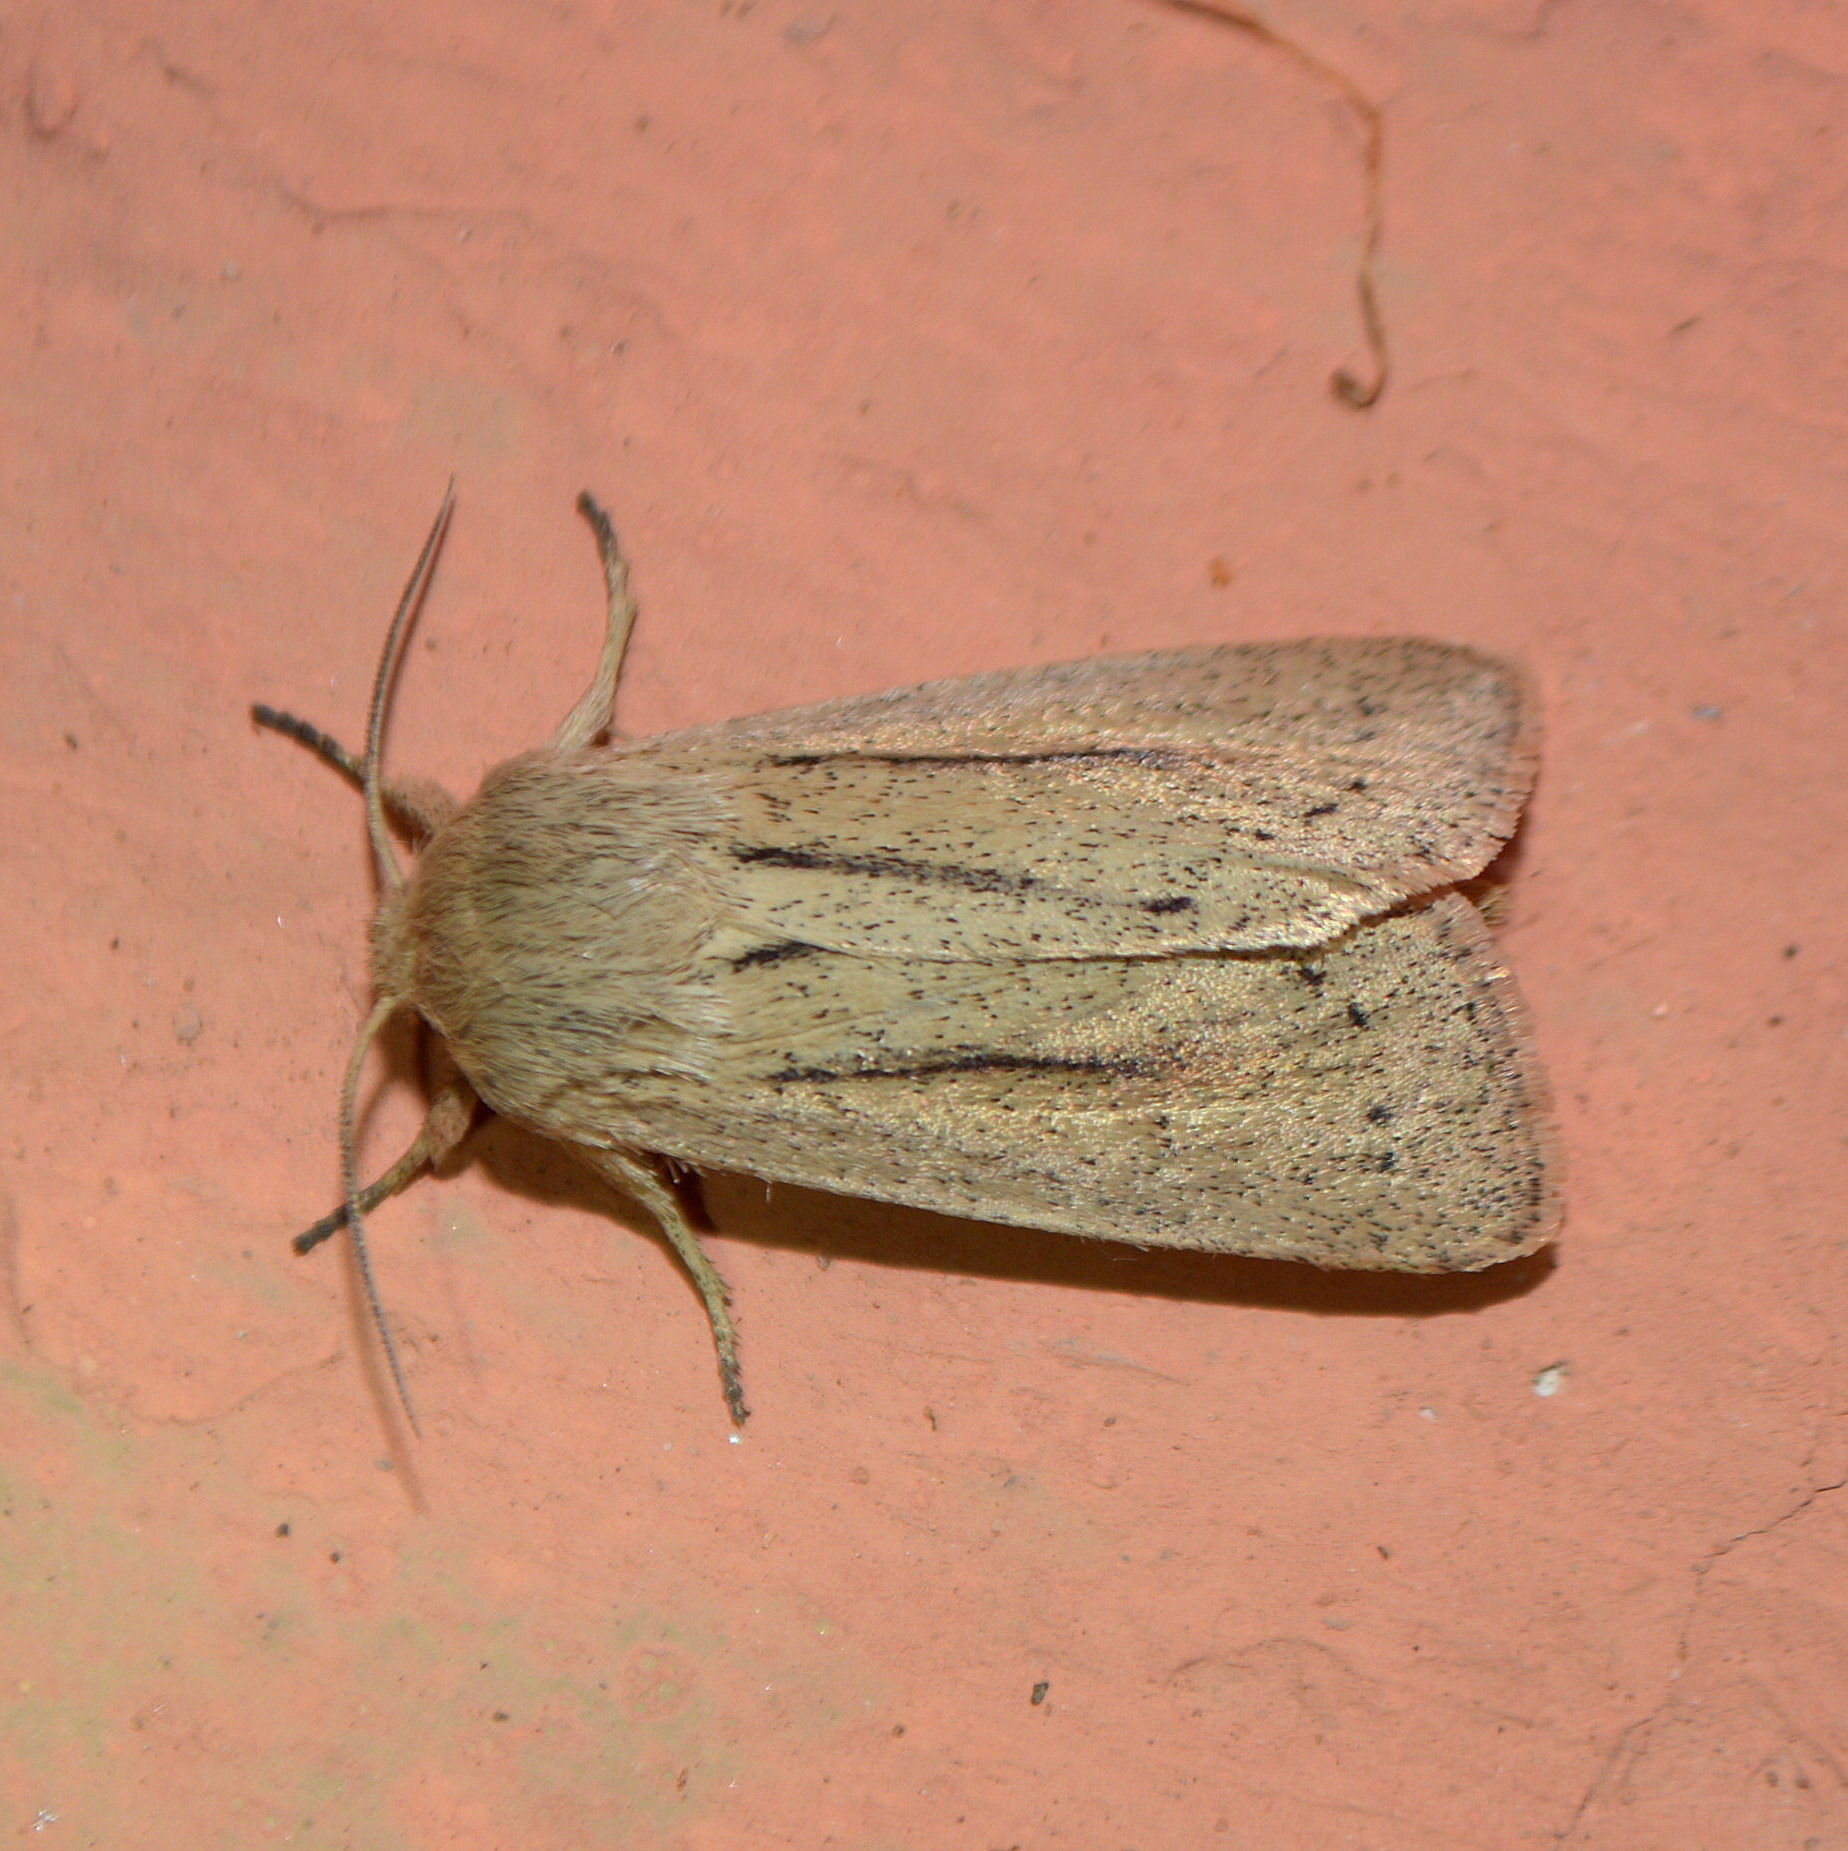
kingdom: Animalia
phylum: Arthropoda
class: Insecta
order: Lepidoptera
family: Noctuidae
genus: Tripseuxoa
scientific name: Tripseuxoa strigata
